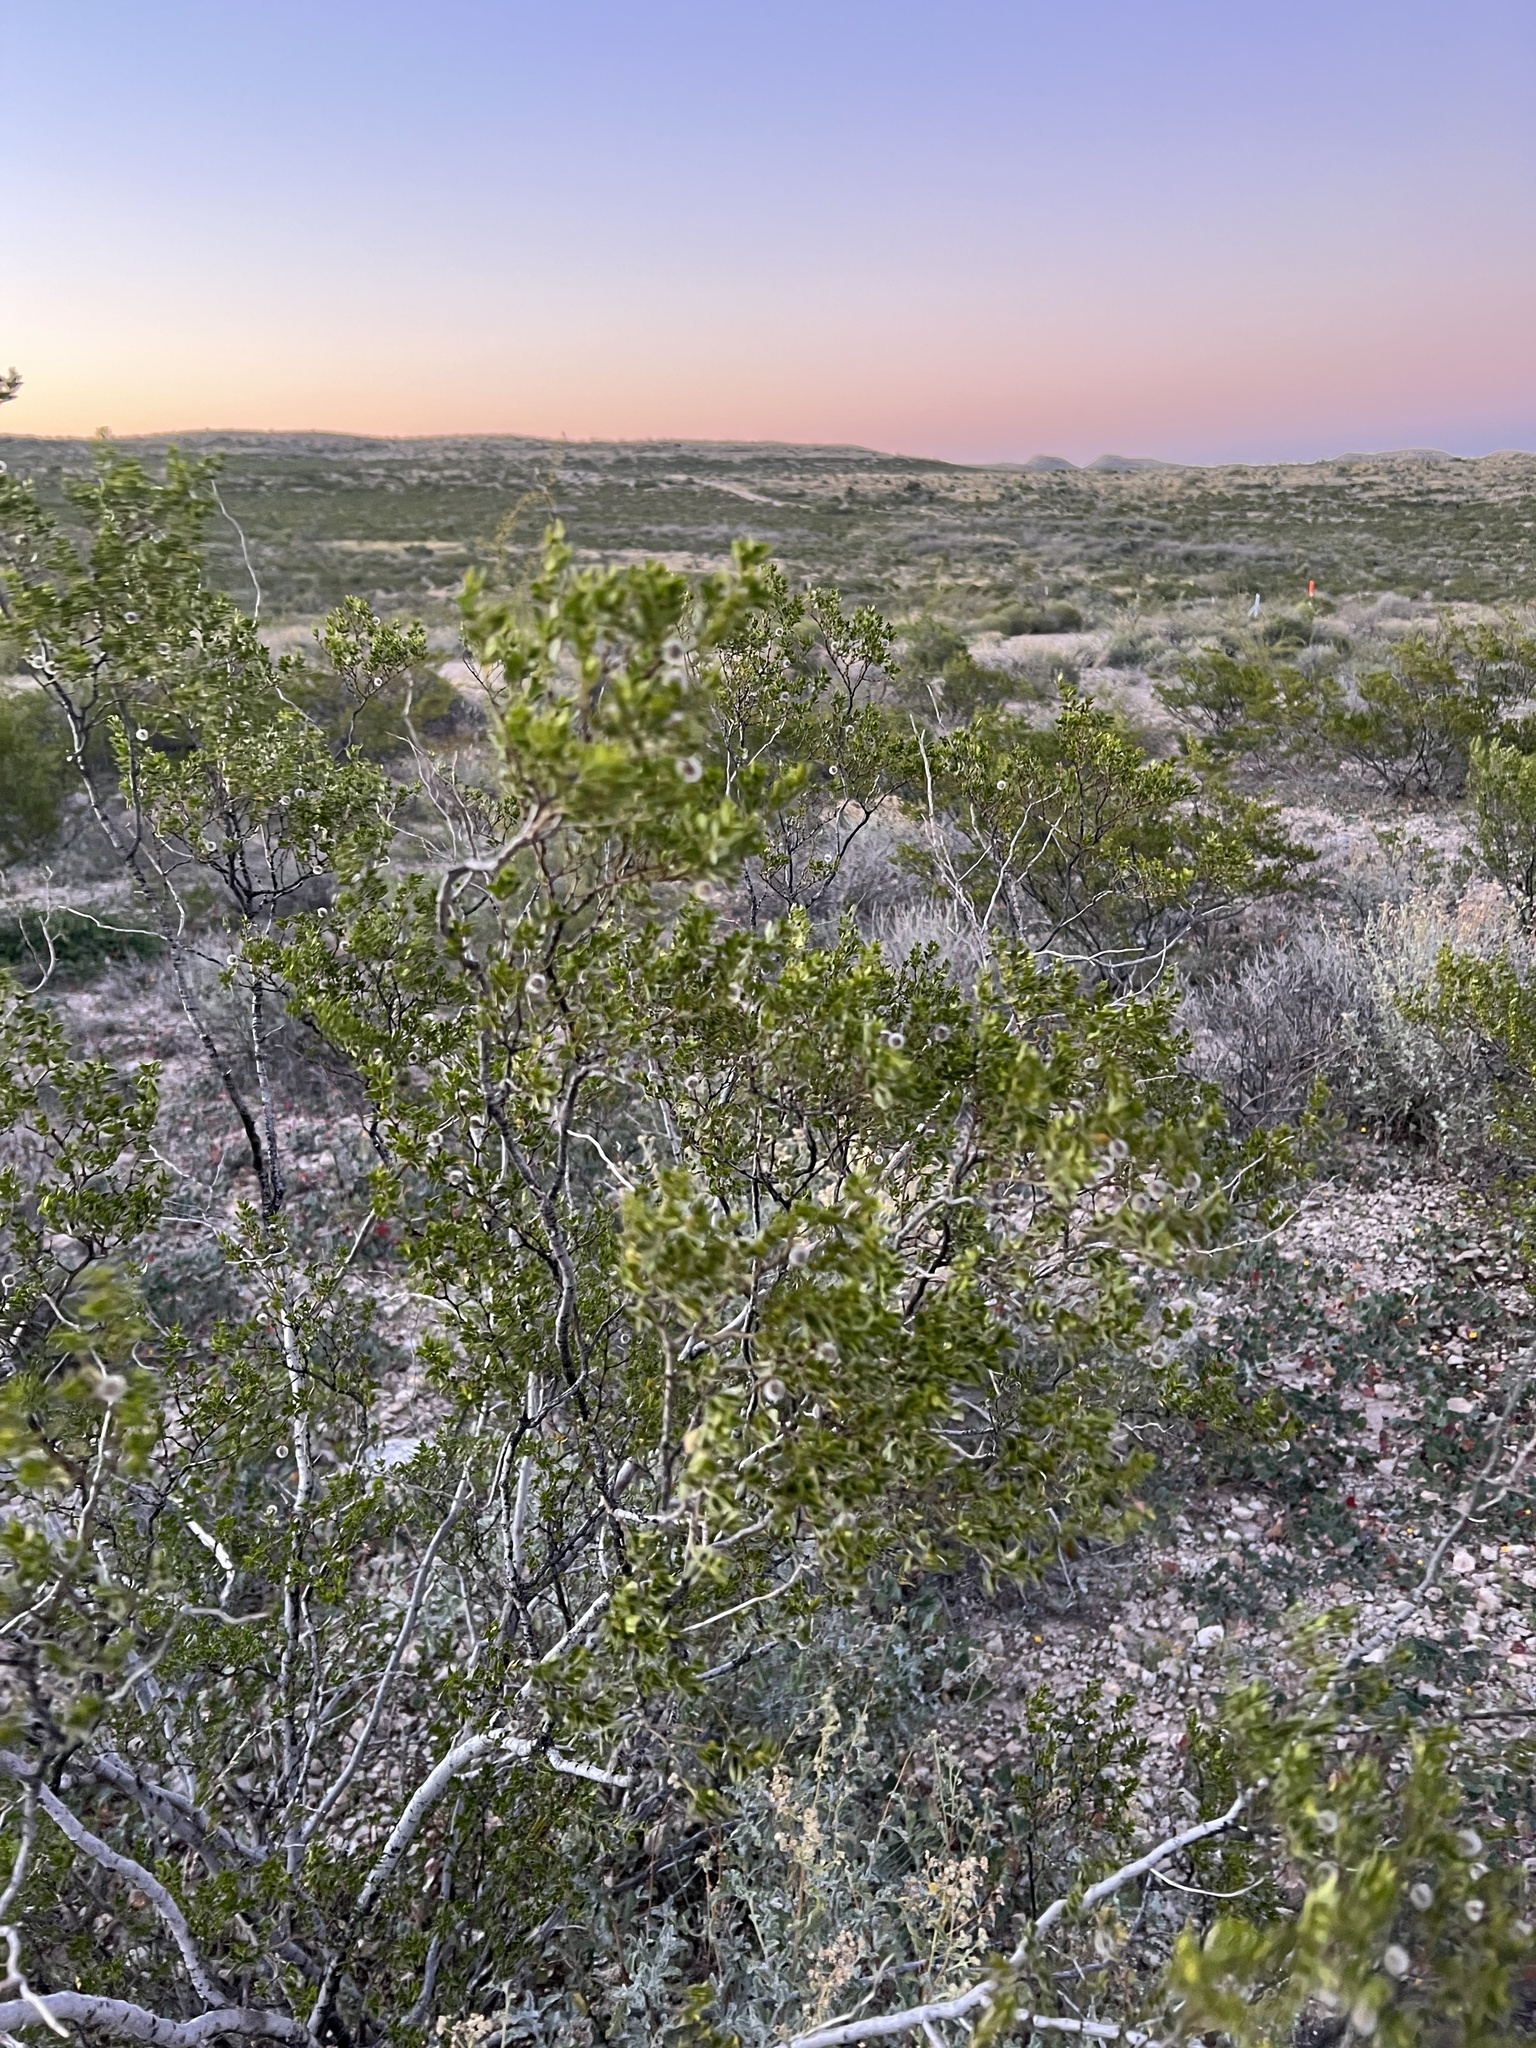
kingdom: Plantae
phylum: Tracheophyta
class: Magnoliopsida
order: Zygophyllales
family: Zygophyllaceae
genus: Larrea
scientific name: Larrea tridentata
